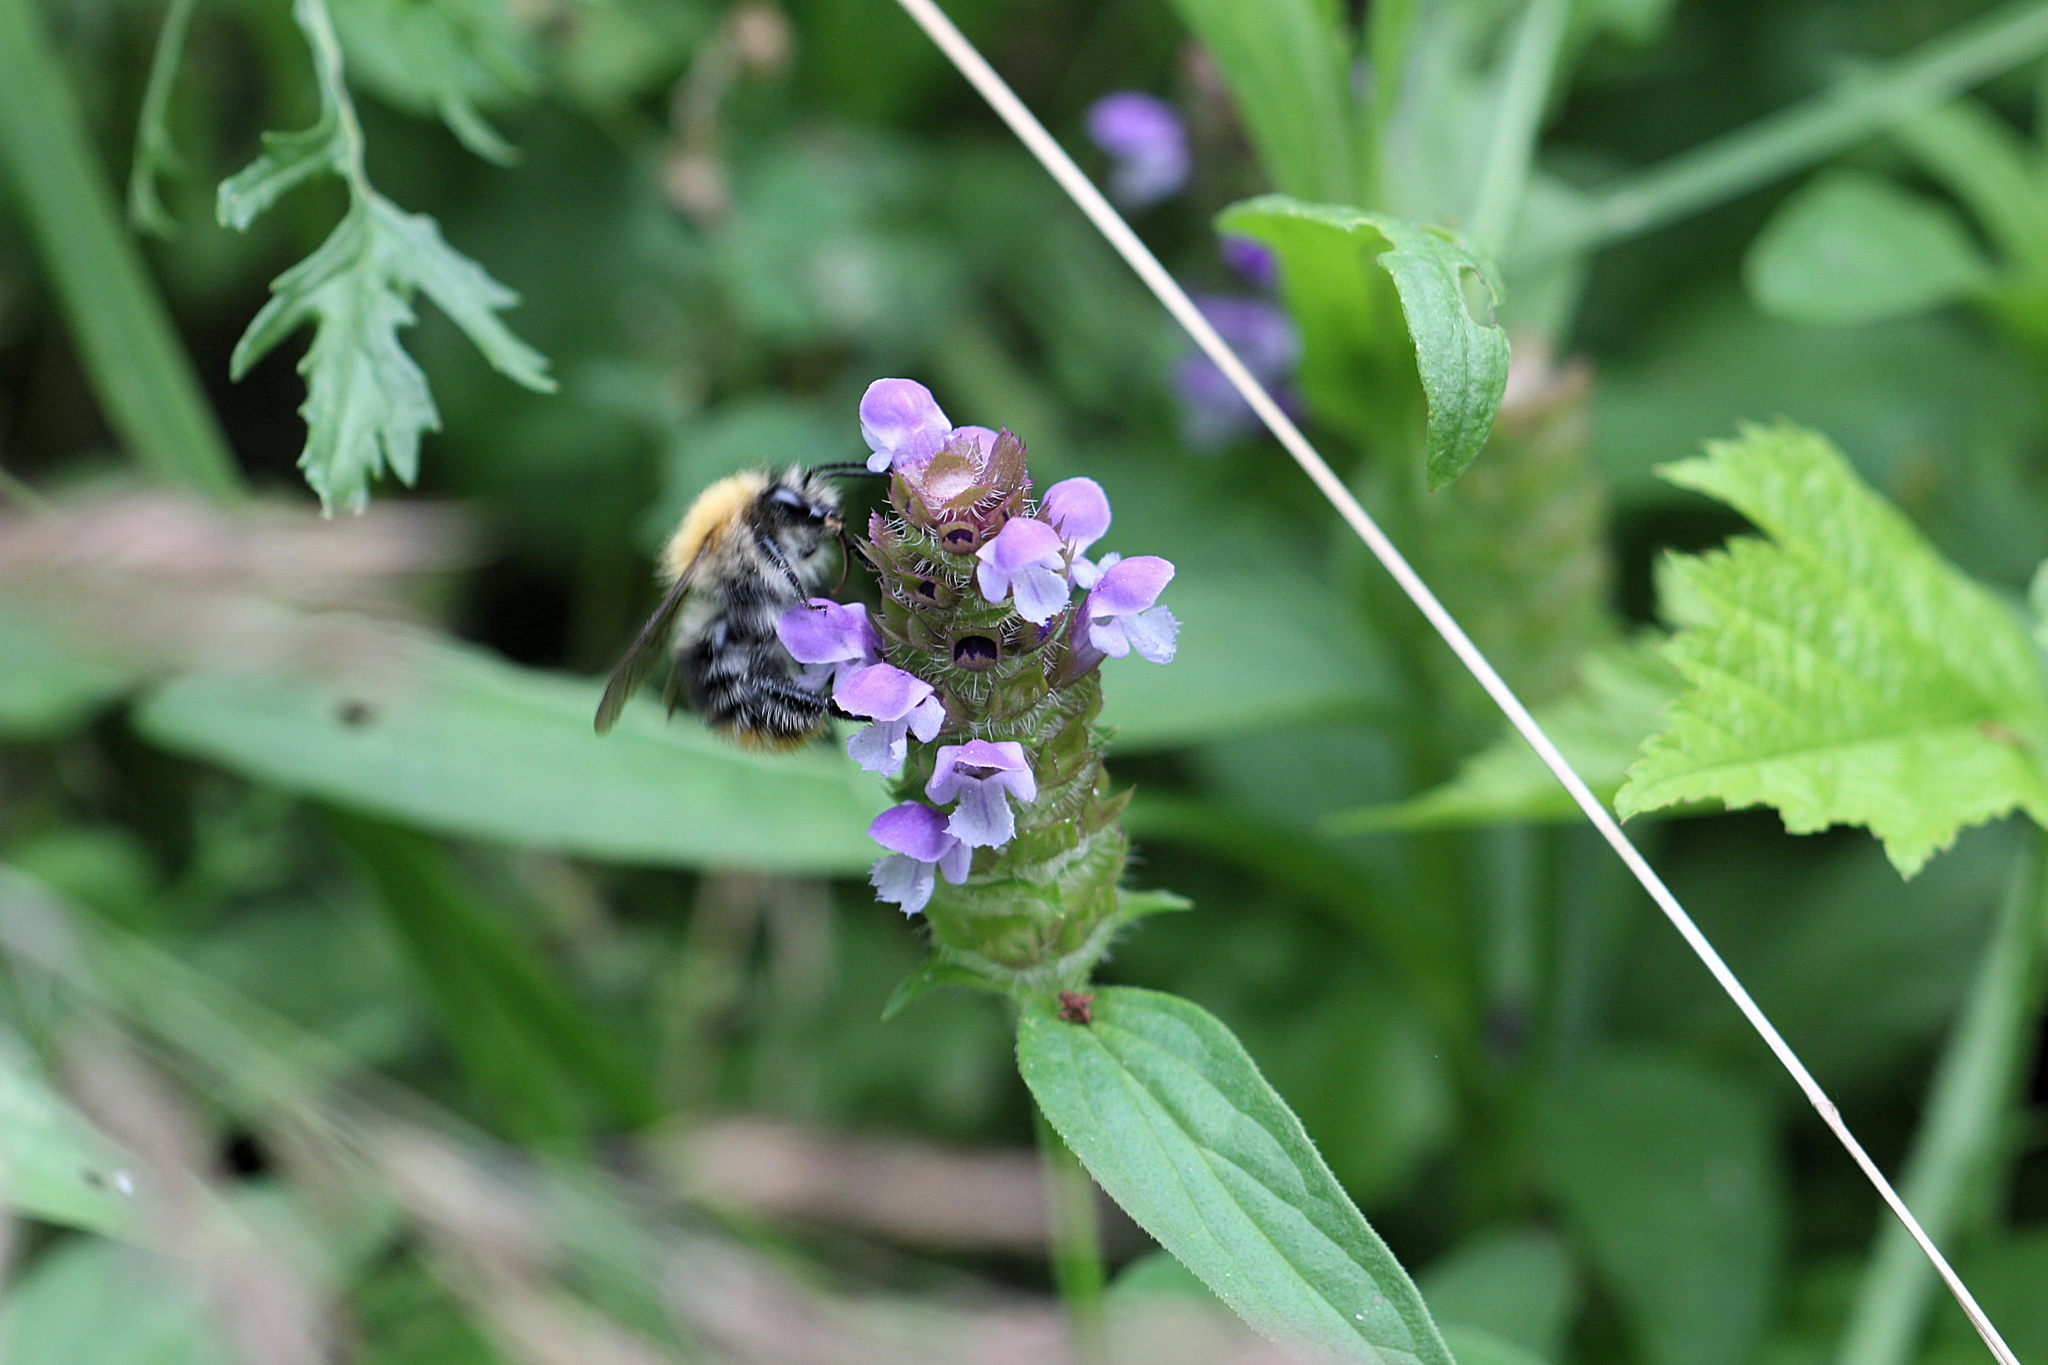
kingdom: Plantae
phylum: Tracheophyta
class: Magnoliopsida
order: Lamiales
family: Lamiaceae
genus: Prunella
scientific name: Prunella vulgaris
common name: Heal-all
